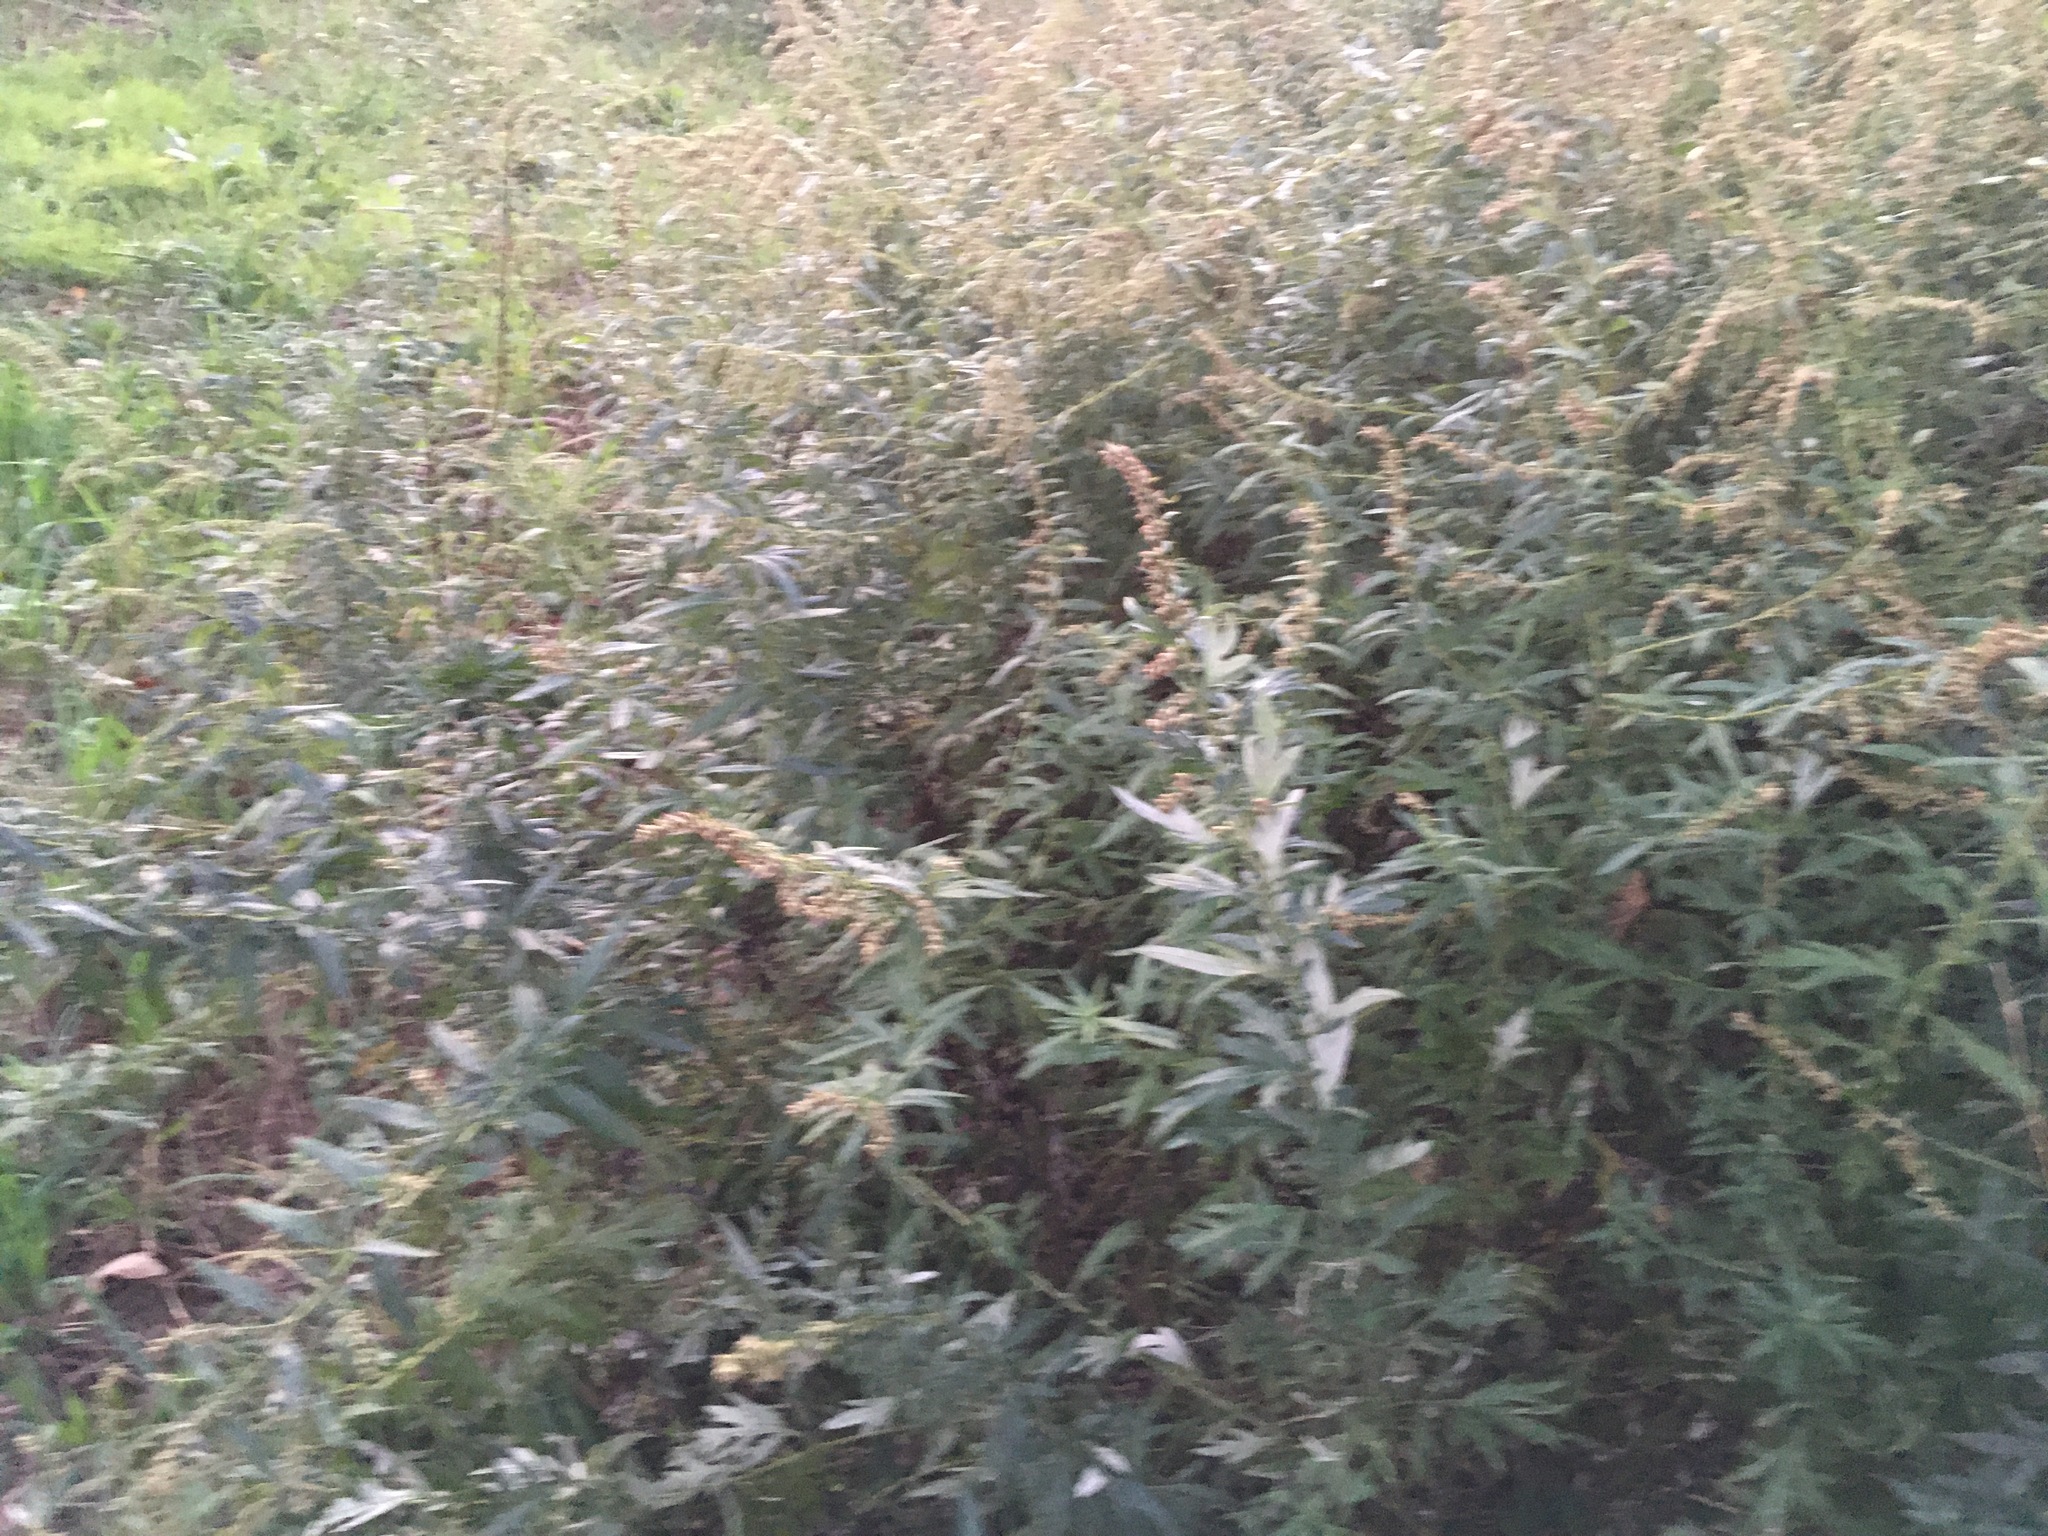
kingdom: Plantae
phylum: Tracheophyta
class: Magnoliopsida
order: Asterales
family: Asteraceae
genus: Artemisia
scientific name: Artemisia vulgaris
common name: Mugwort
